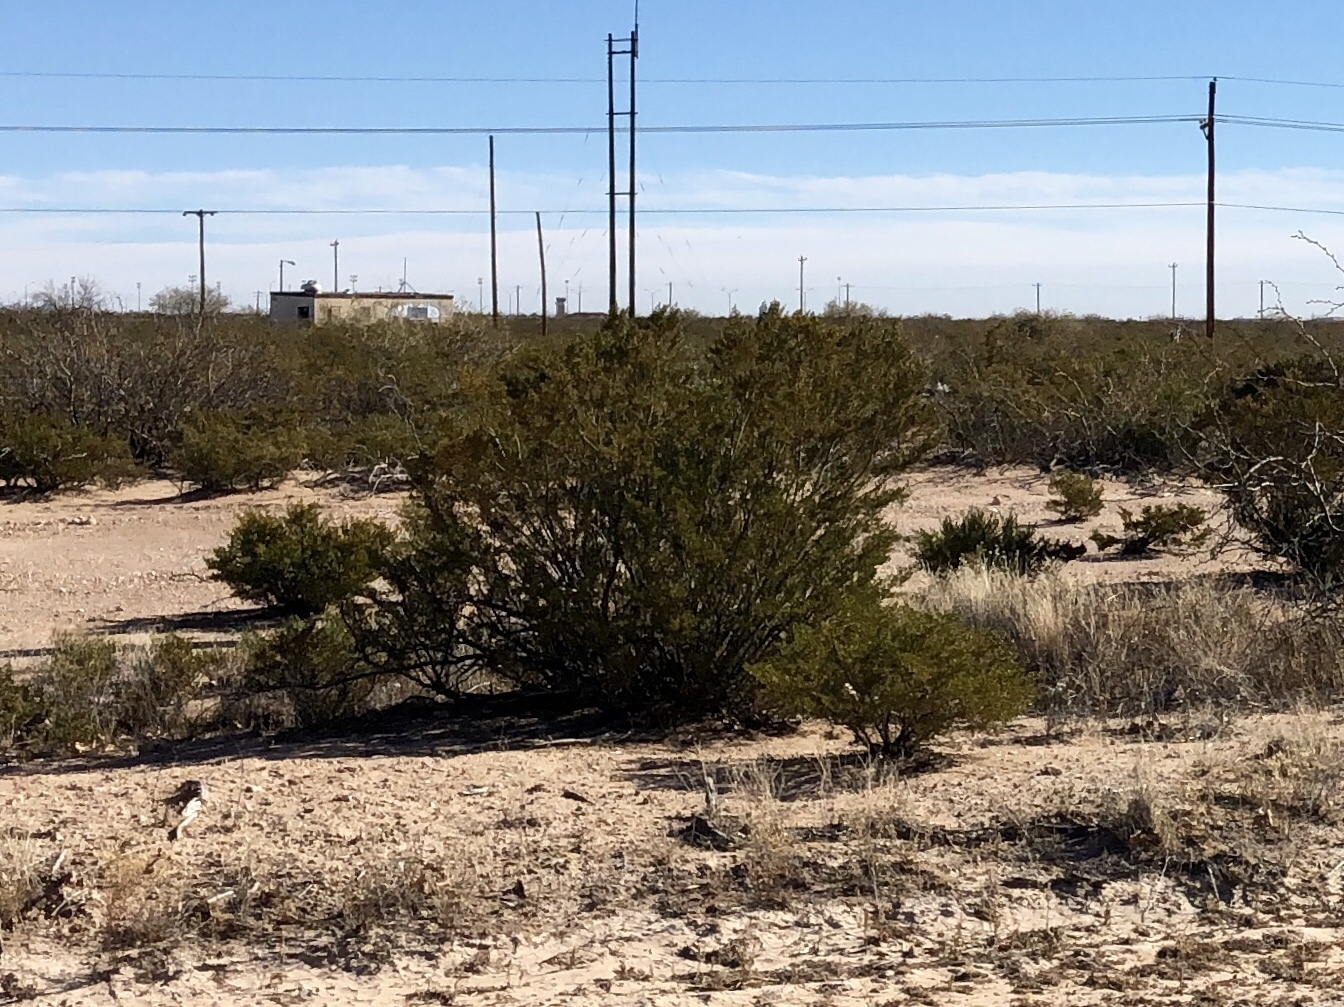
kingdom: Plantae
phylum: Tracheophyta
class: Magnoliopsida
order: Zygophyllales
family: Zygophyllaceae
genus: Larrea
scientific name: Larrea tridentata
